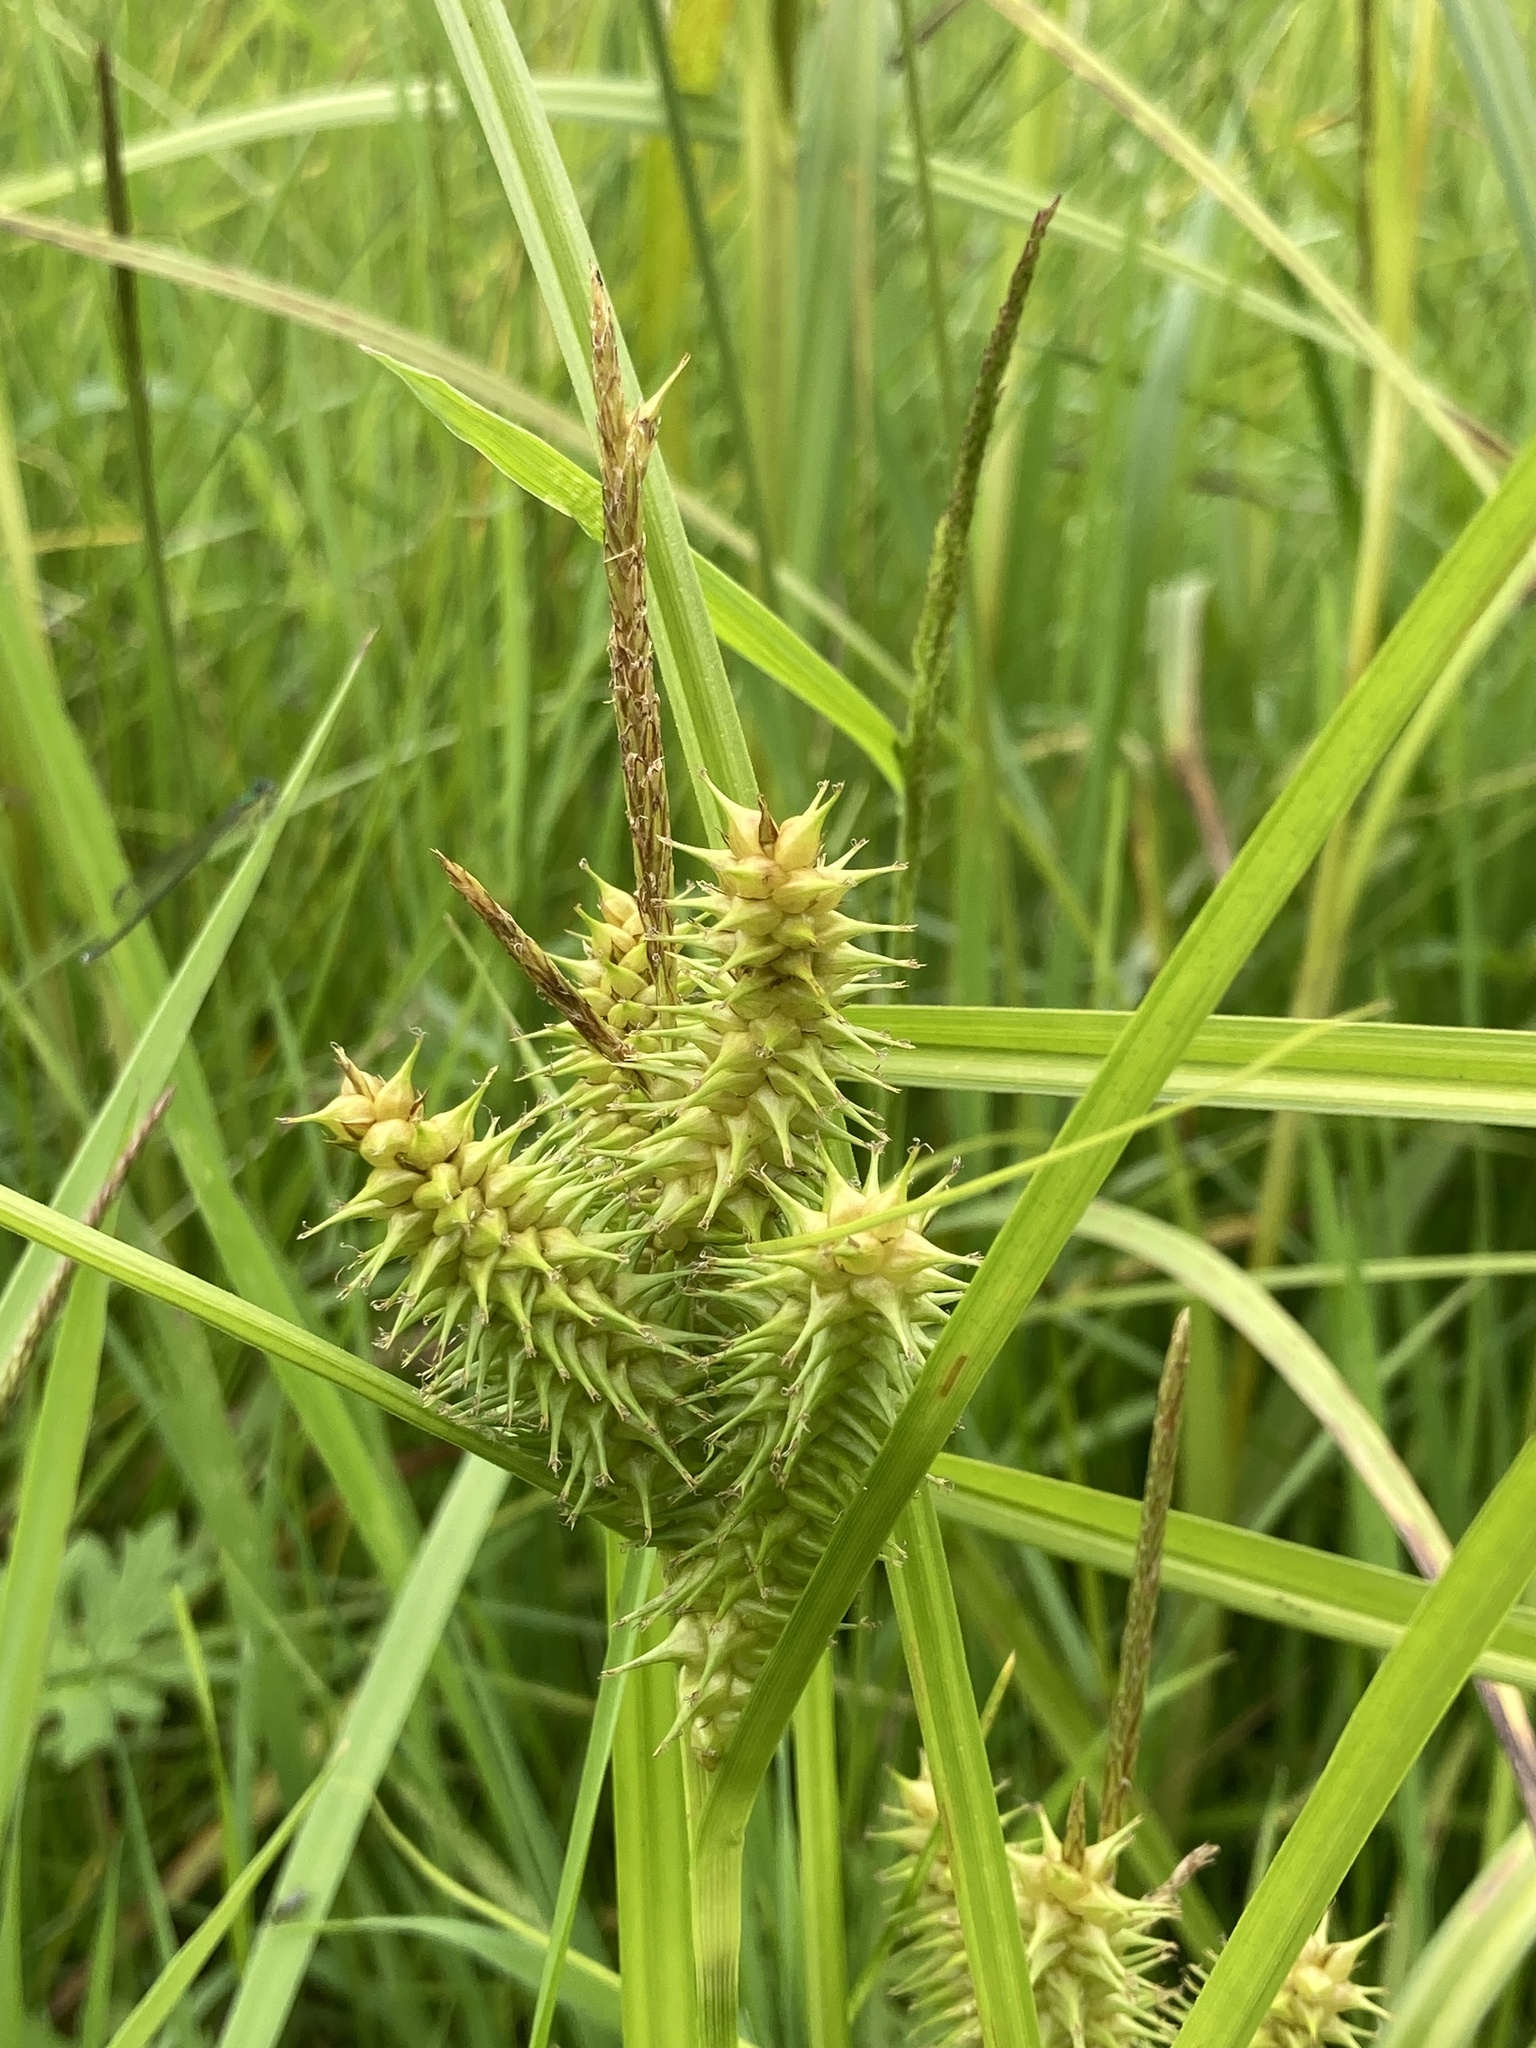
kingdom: Plantae
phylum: Tracheophyta
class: Liliopsida
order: Poales
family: Cyperaceae
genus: Carex
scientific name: Carex retrorsa
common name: Knot-sheath sedge
